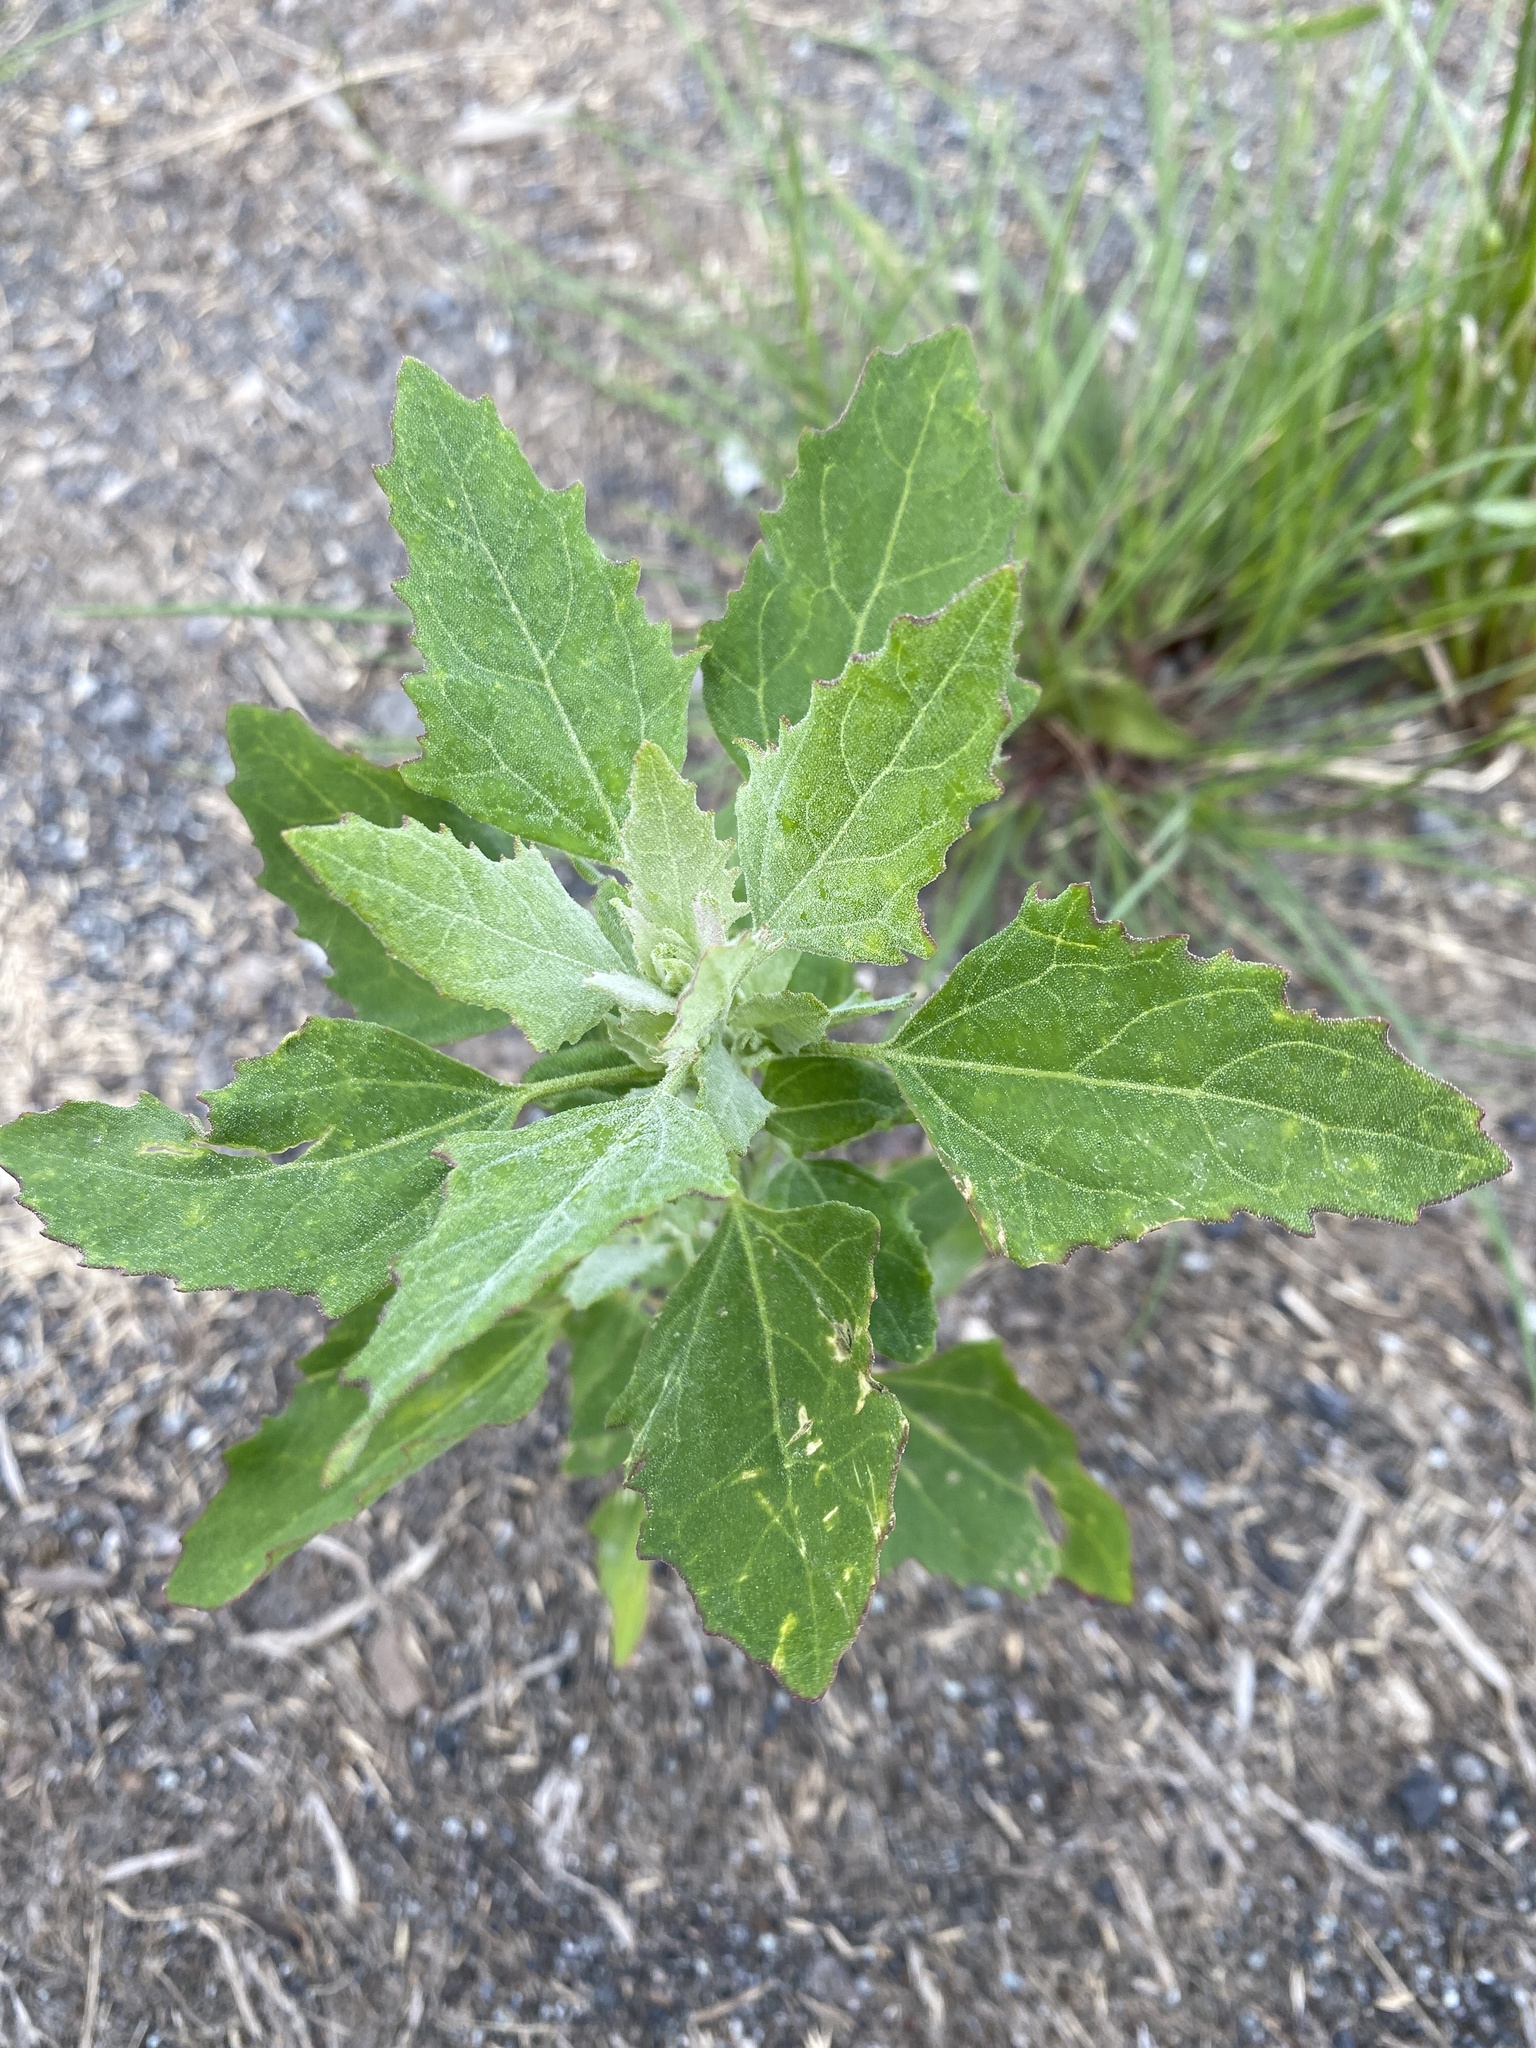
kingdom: Plantae
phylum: Tracheophyta
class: Magnoliopsida
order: Caryophyllales
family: Amaranthaceae
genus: Chenopodium
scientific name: Chenopodium album
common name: Fat-hen
